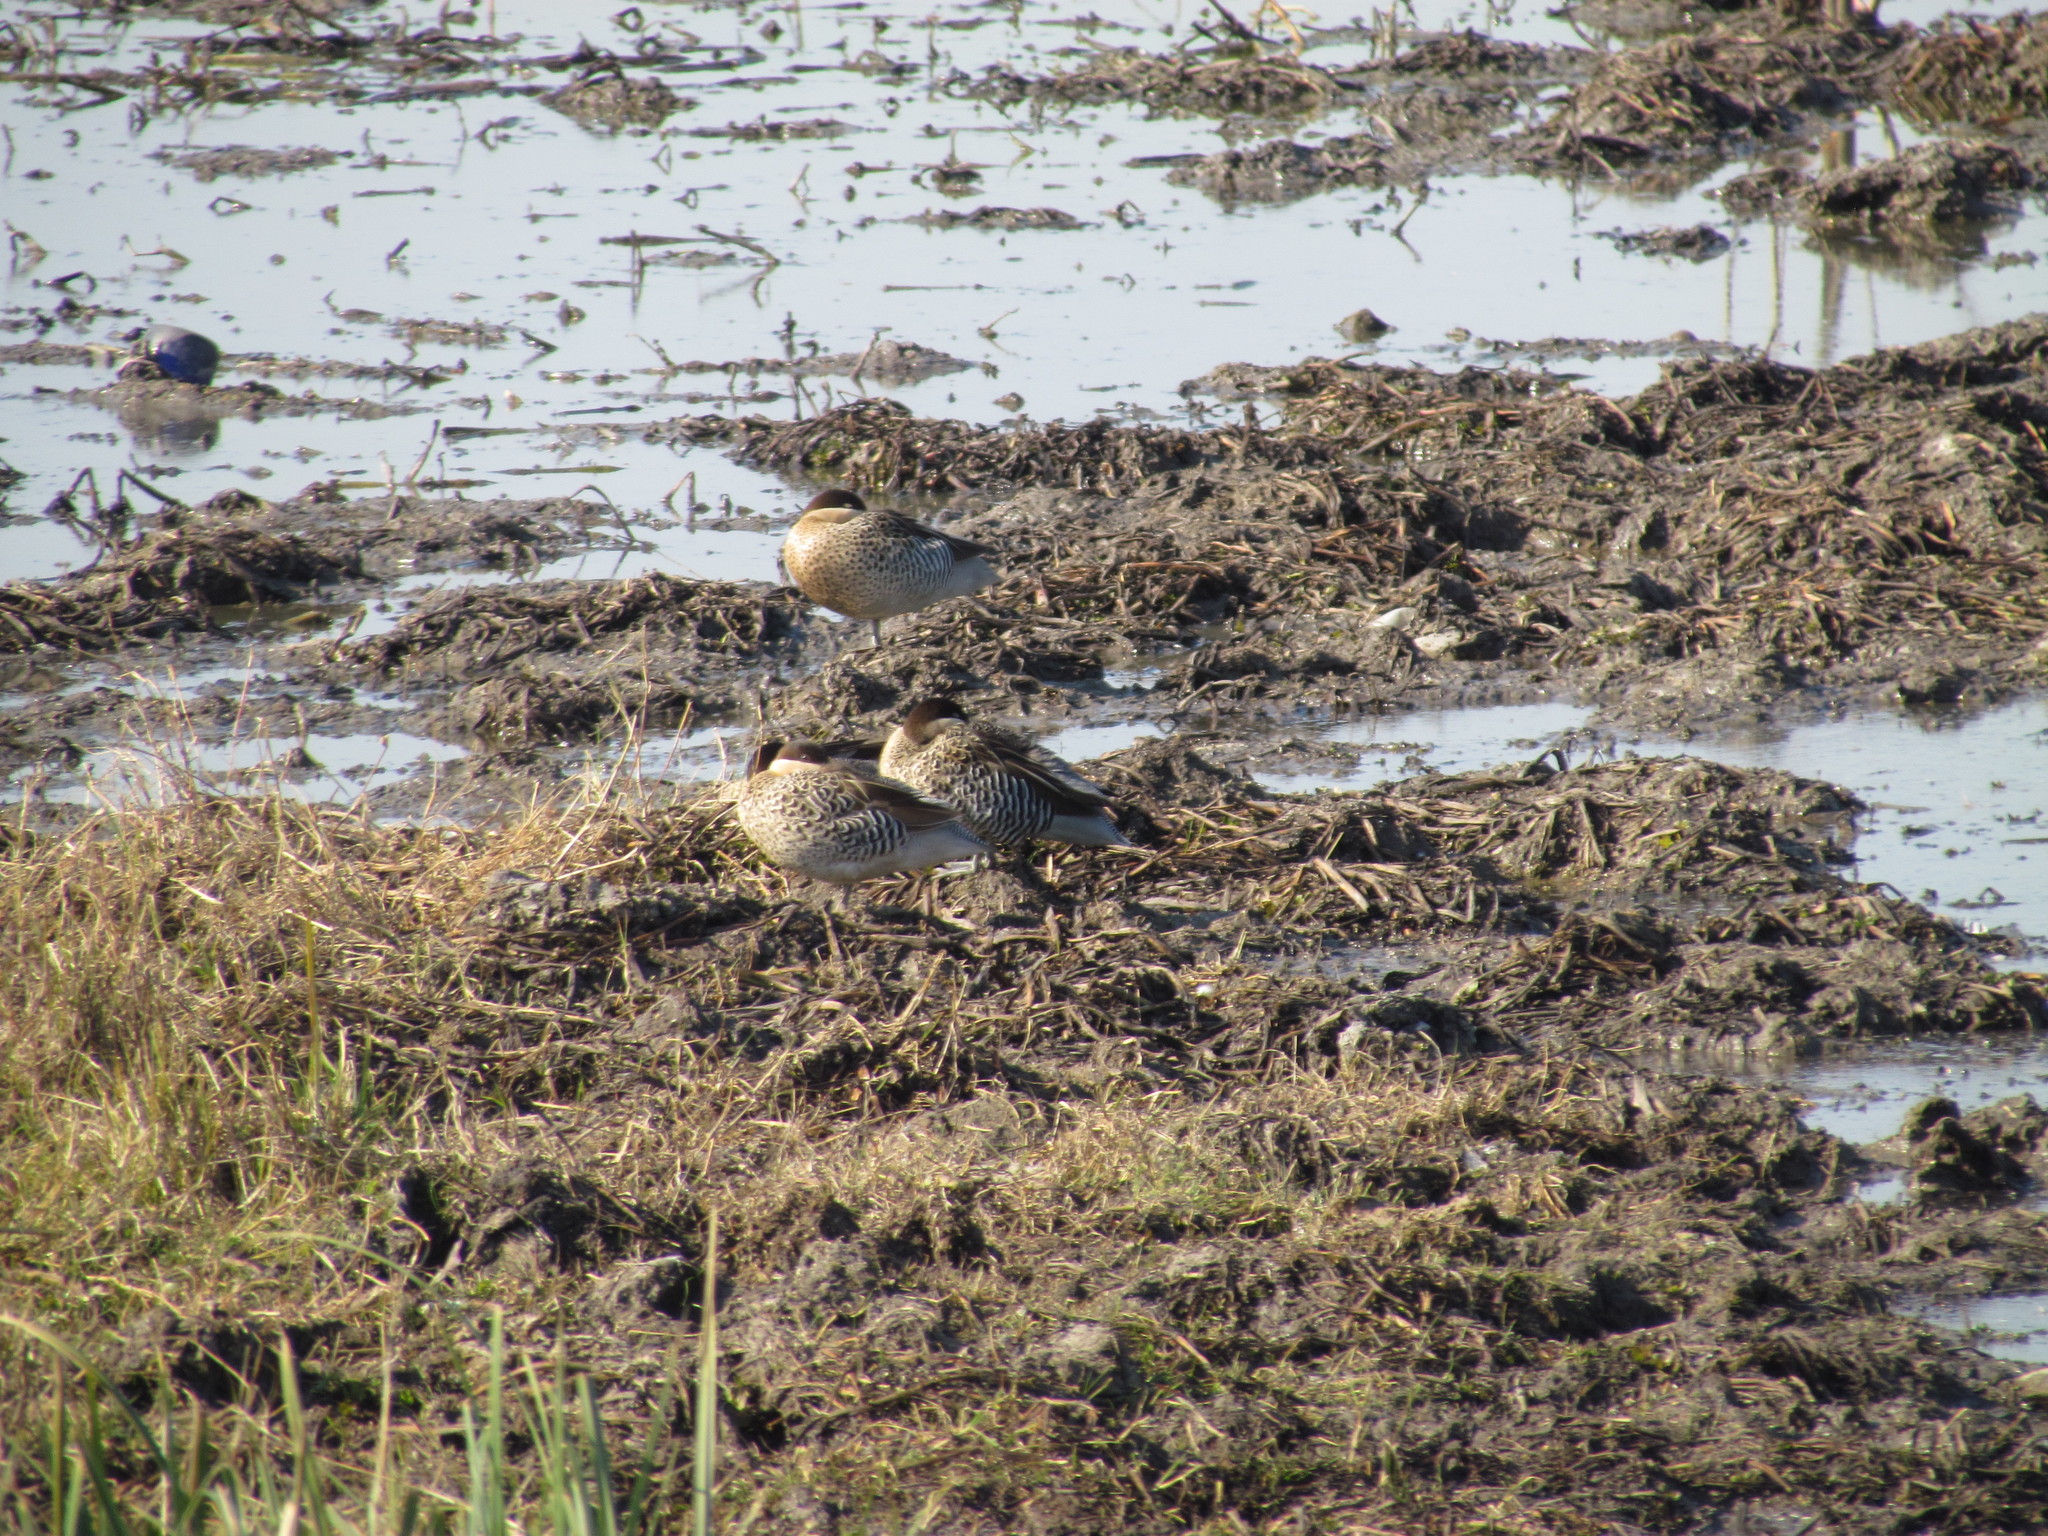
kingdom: Animalia
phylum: Chordata
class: Aves
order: Anseriformes
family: Anatidae
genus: Spatula
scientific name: Spatula versicolor
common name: Silver teal
